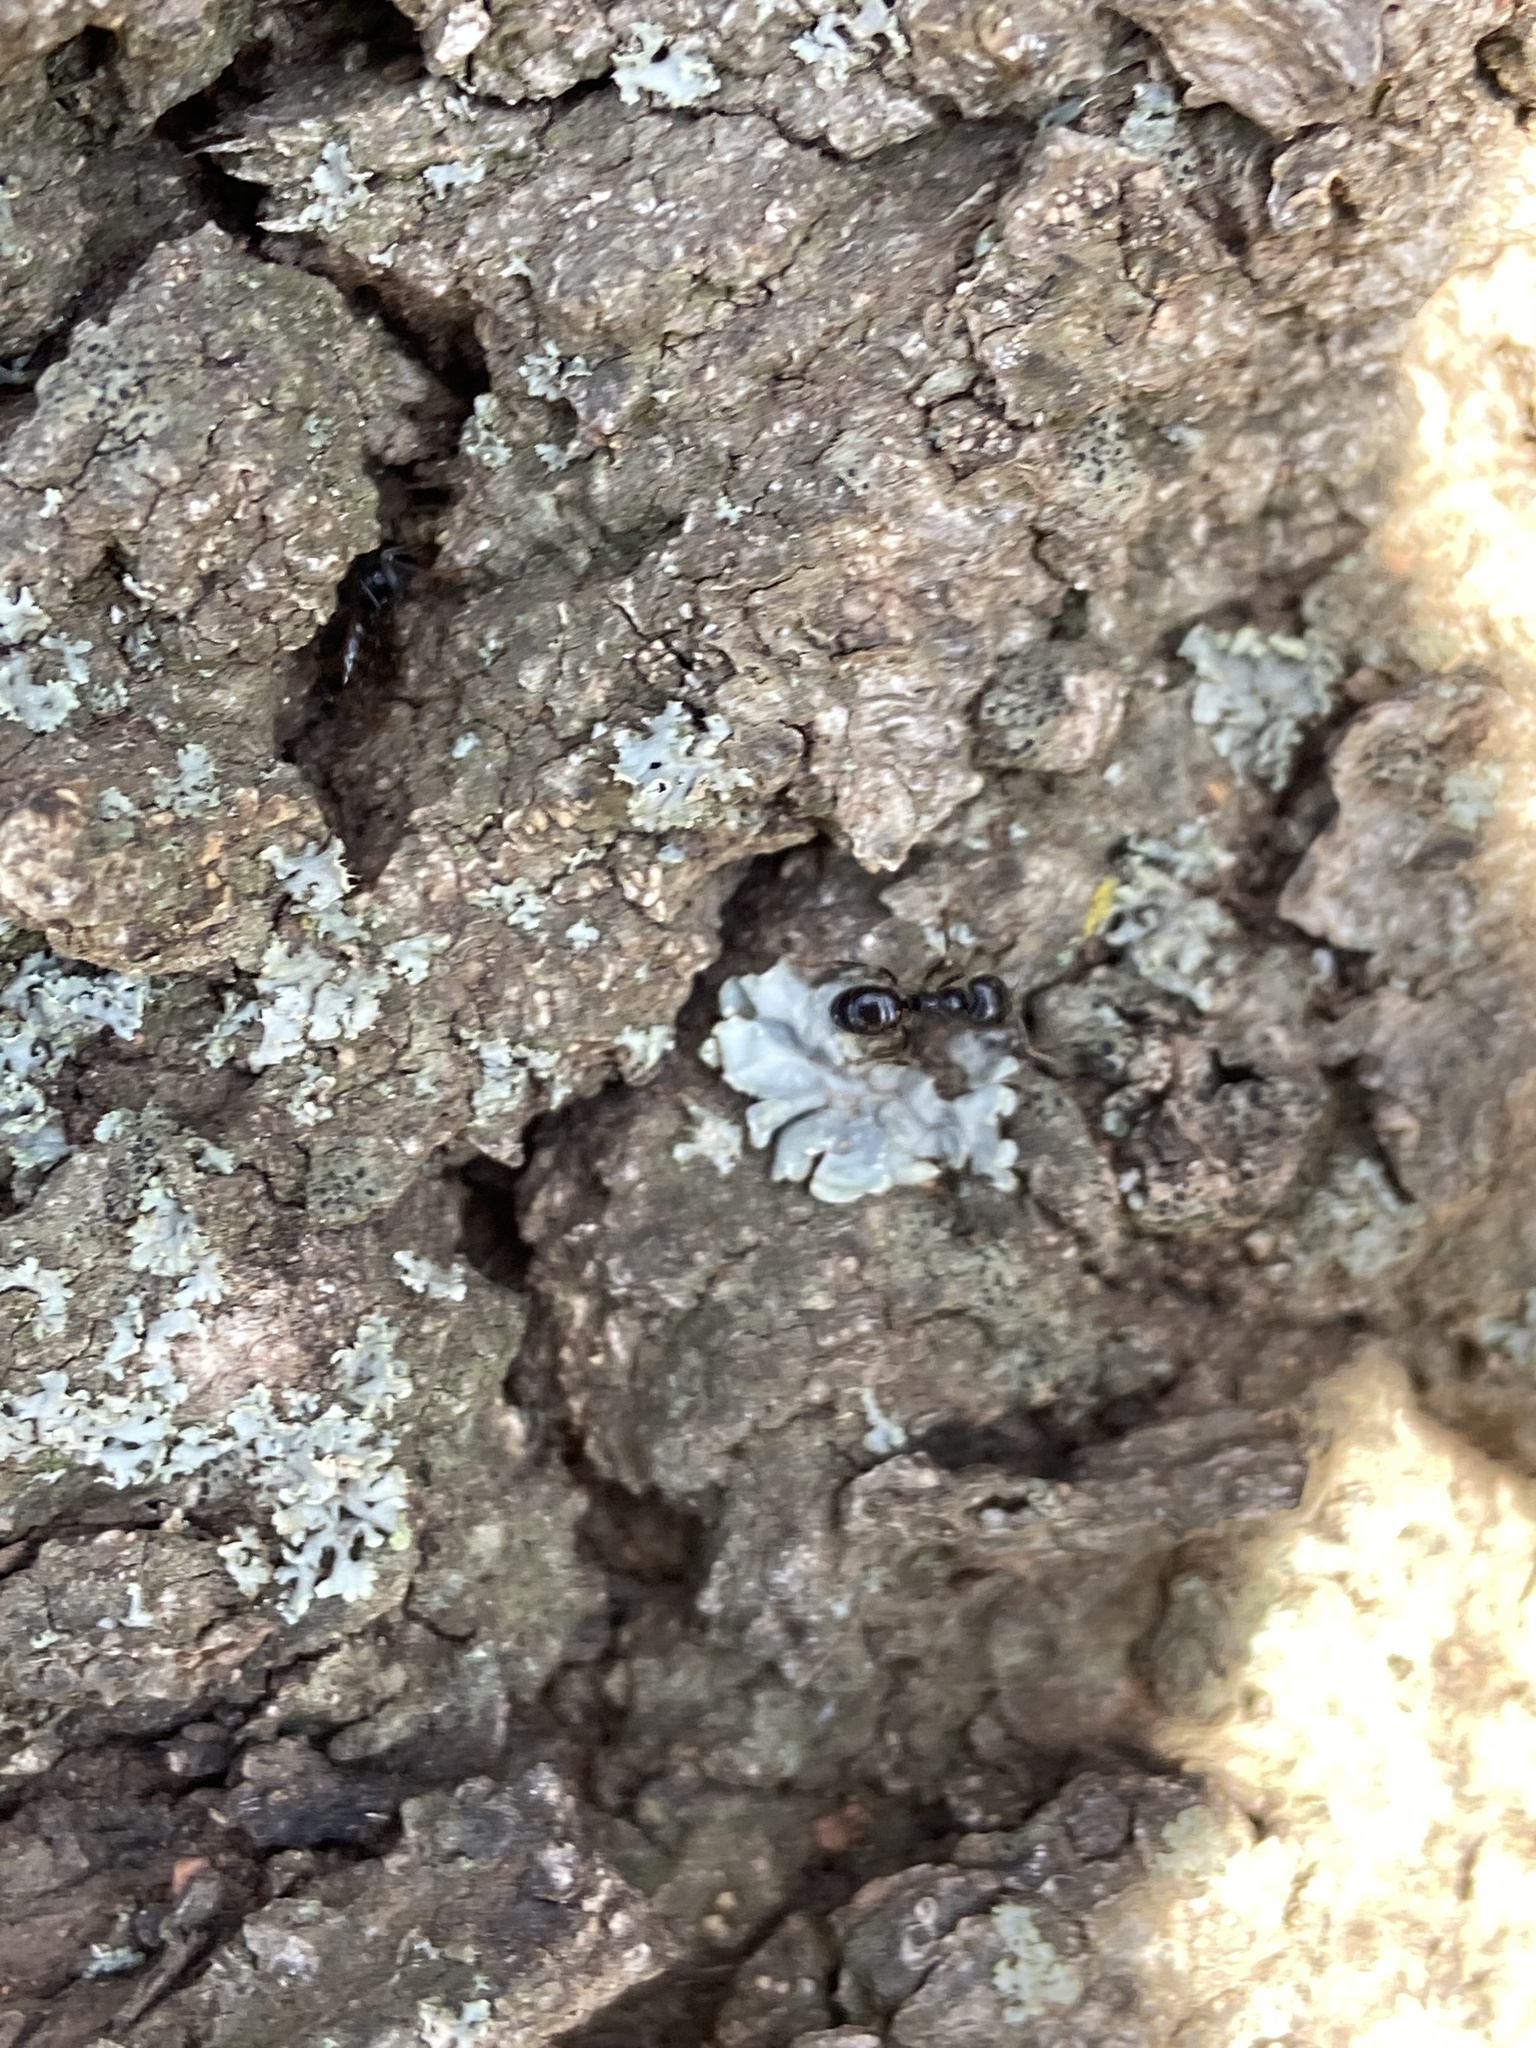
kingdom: Animalia
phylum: Arthropoda
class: Insecta
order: Hymenoptera
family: Formicidae
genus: Lasius
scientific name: Lasius fuliginosus
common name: Jet ant
